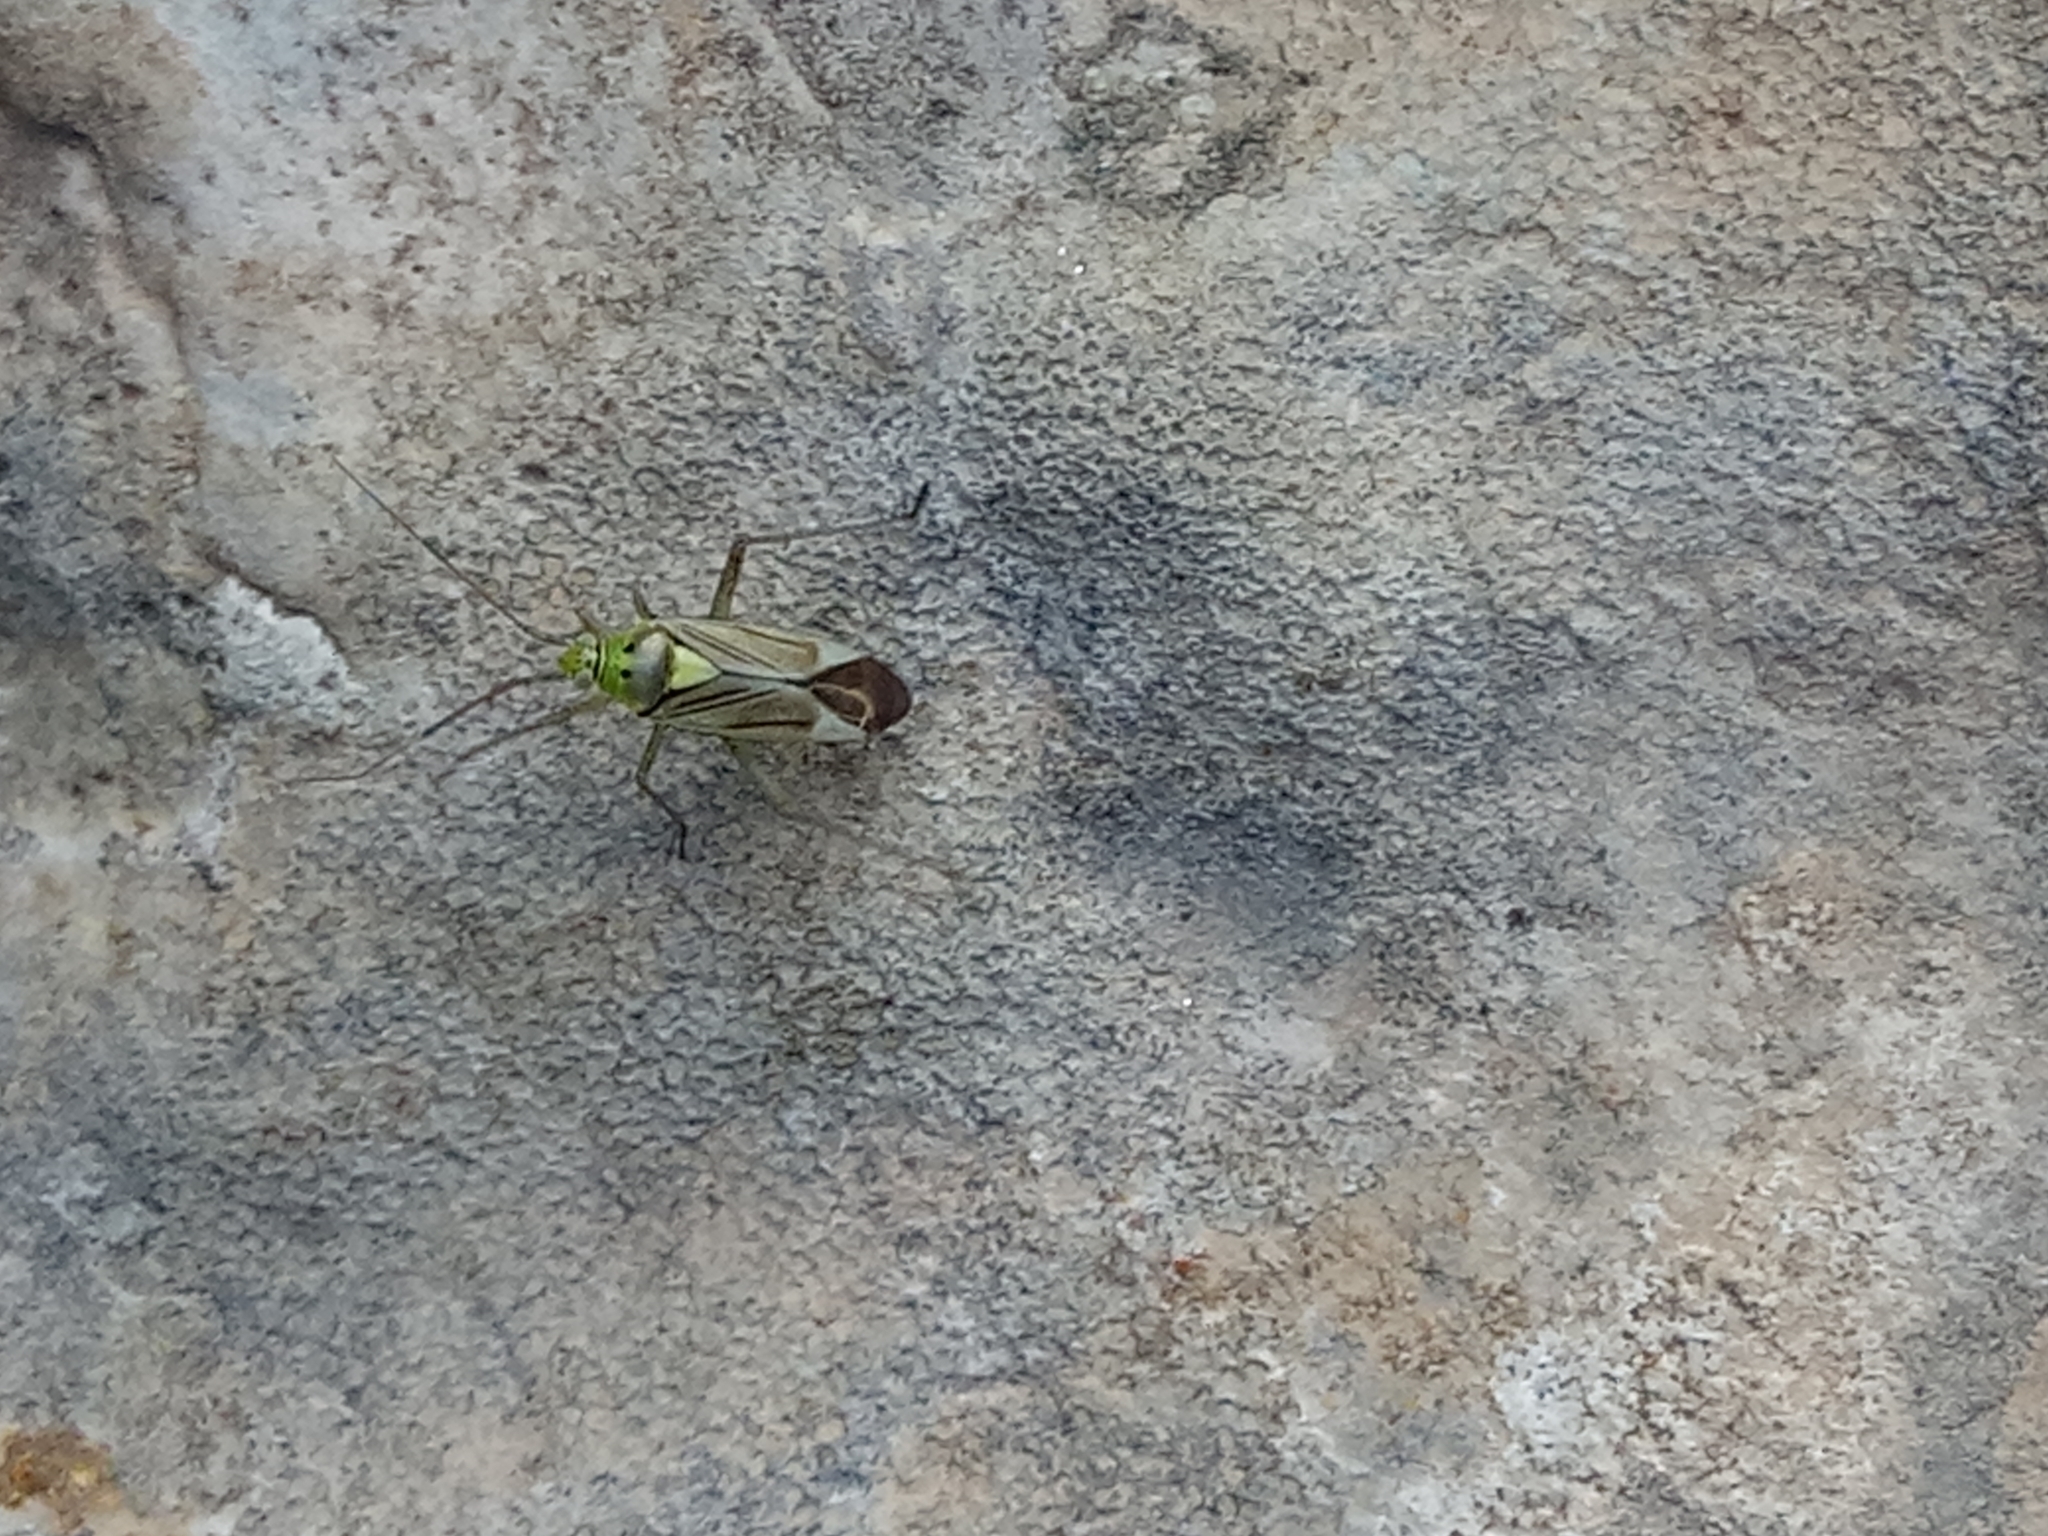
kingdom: Animalia
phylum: Arthropoda
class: Insecta
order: Hemiptera
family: Miridae
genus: Closterotomus
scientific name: Closterotomus tunetanus
